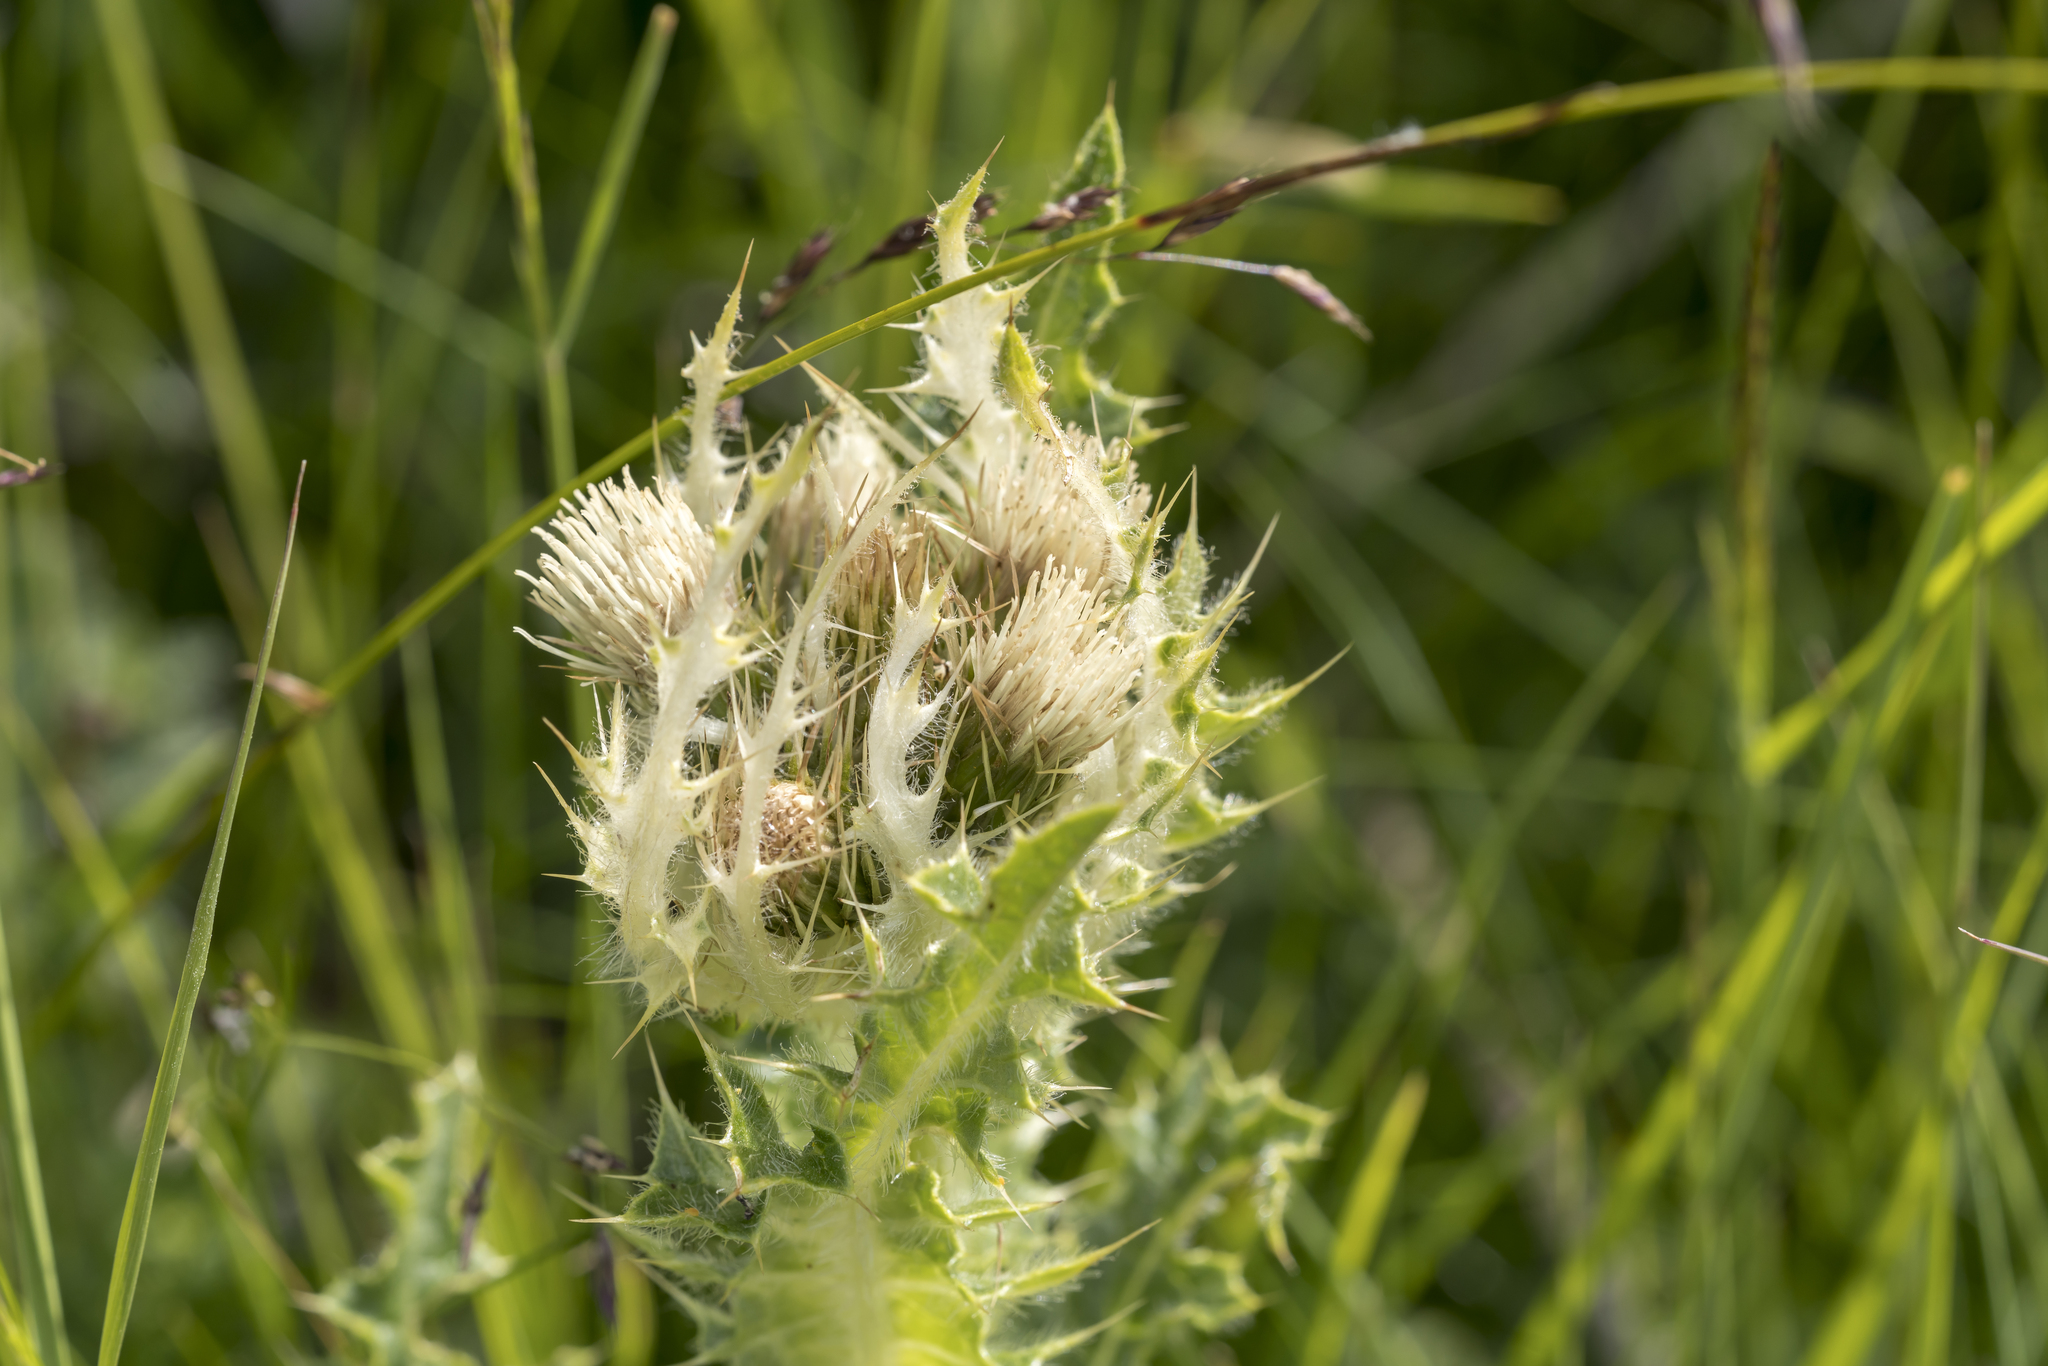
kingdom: Plantae
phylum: Tracheophyta
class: Magnoliopsida
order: Asterales
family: Asteraceae
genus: Cirsium
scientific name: Cirsium spinosissimum
